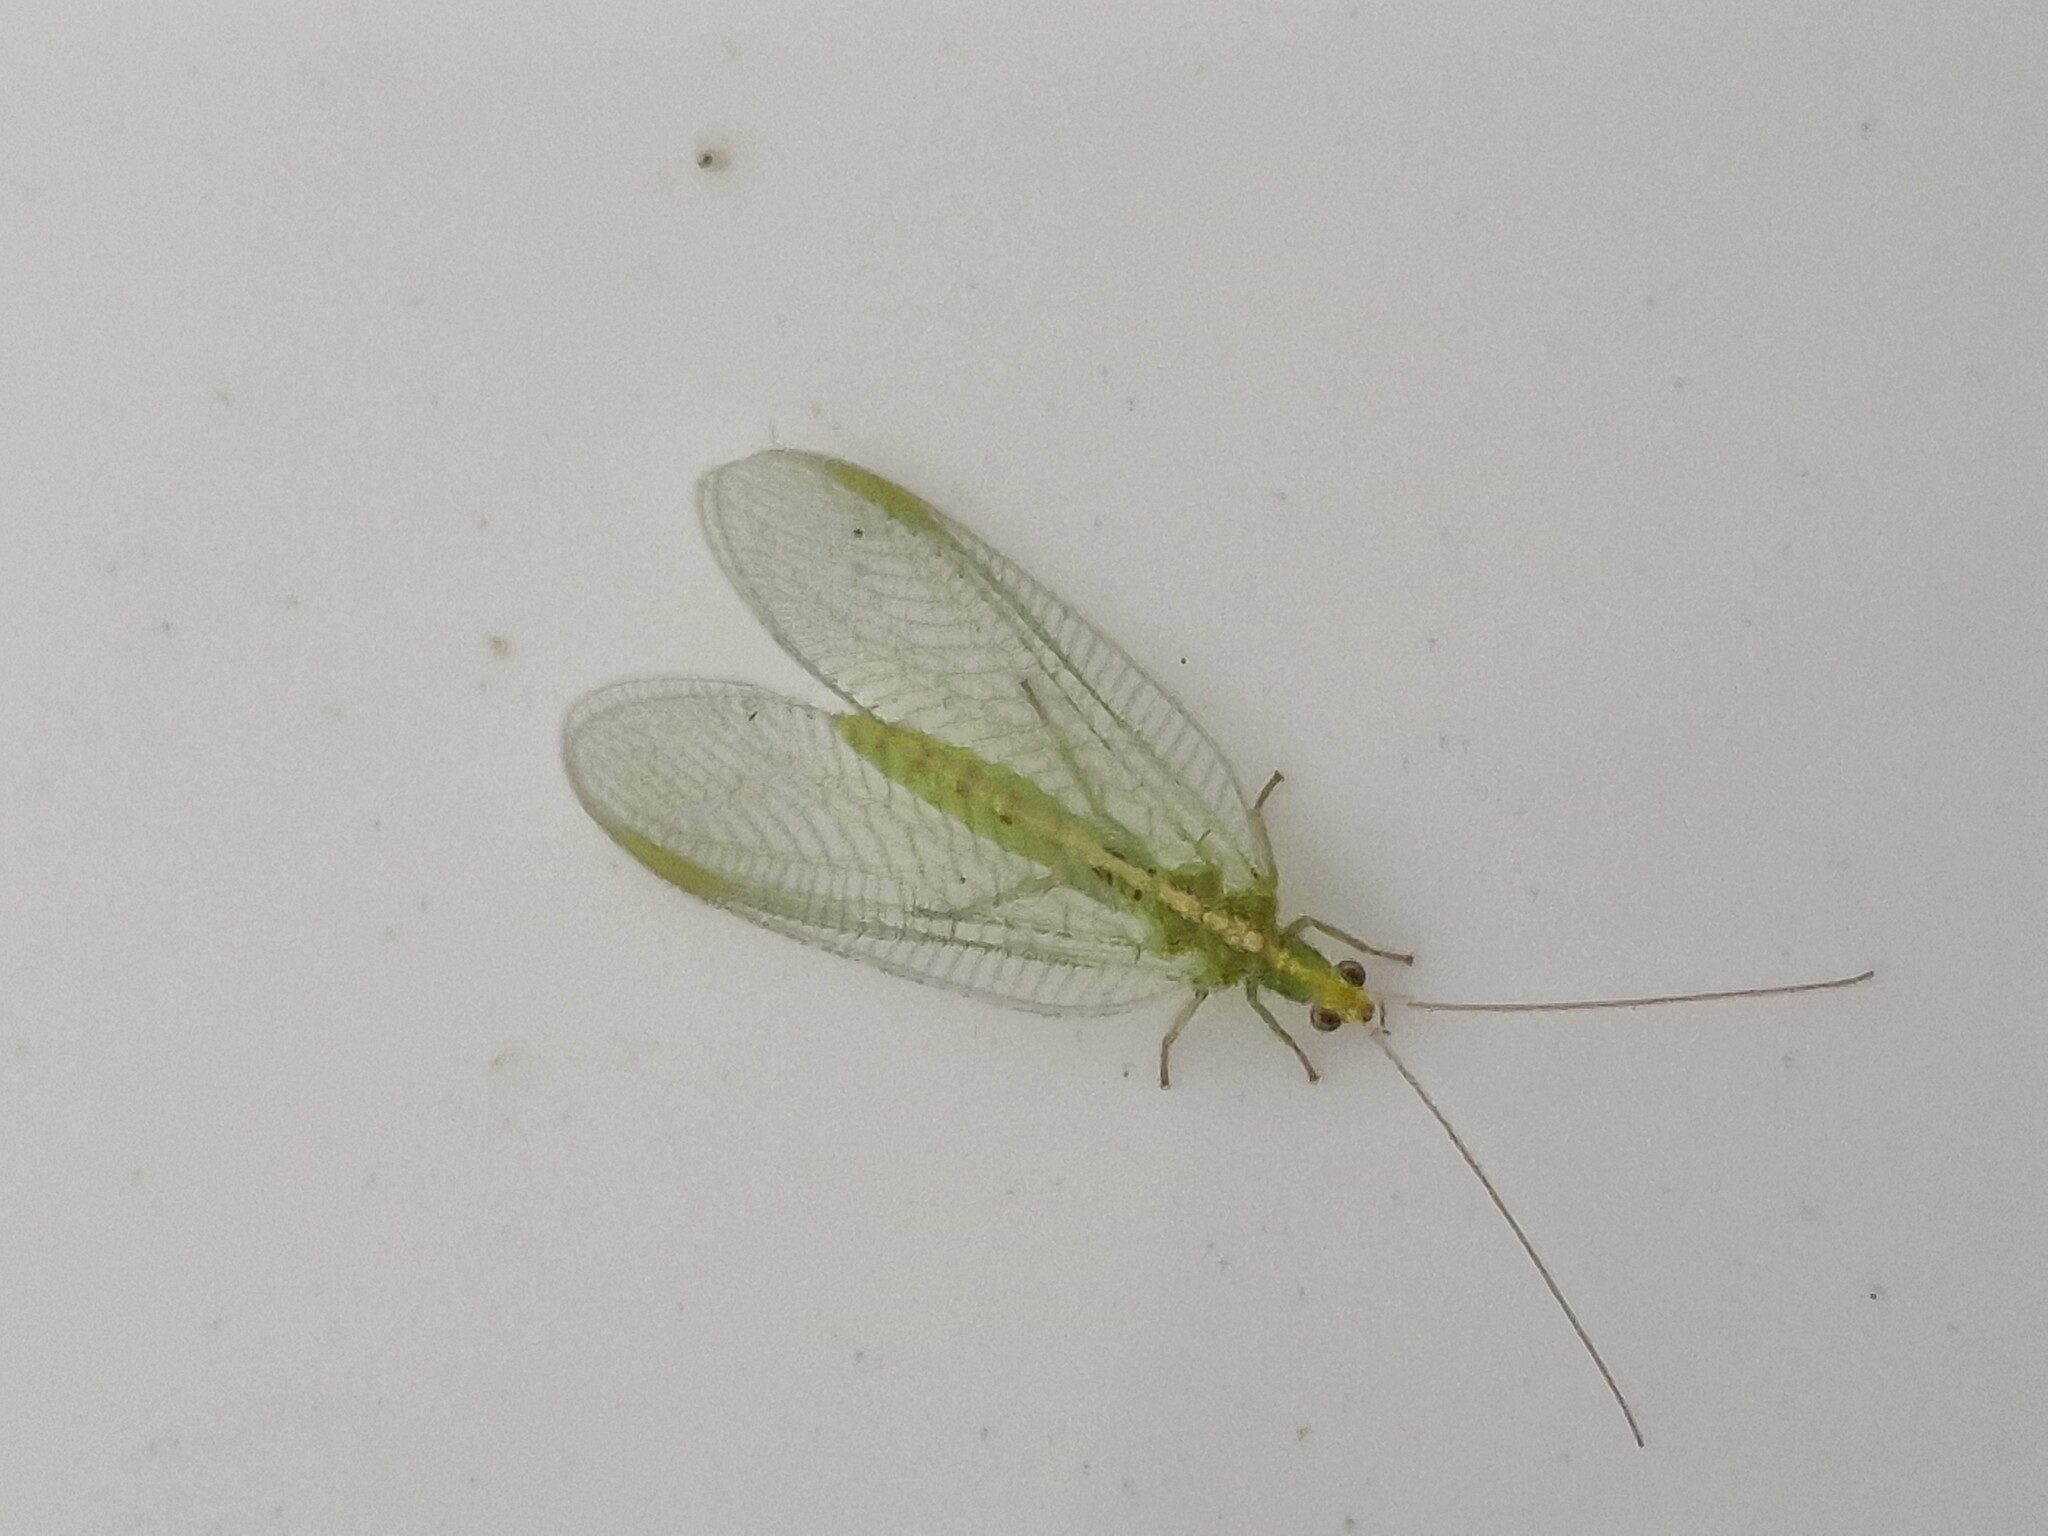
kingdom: Animalia
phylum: Arthropoda
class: Insecta
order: Neuroptera
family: Chrysopidae
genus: Chrysoperla
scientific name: Chrysoperla
